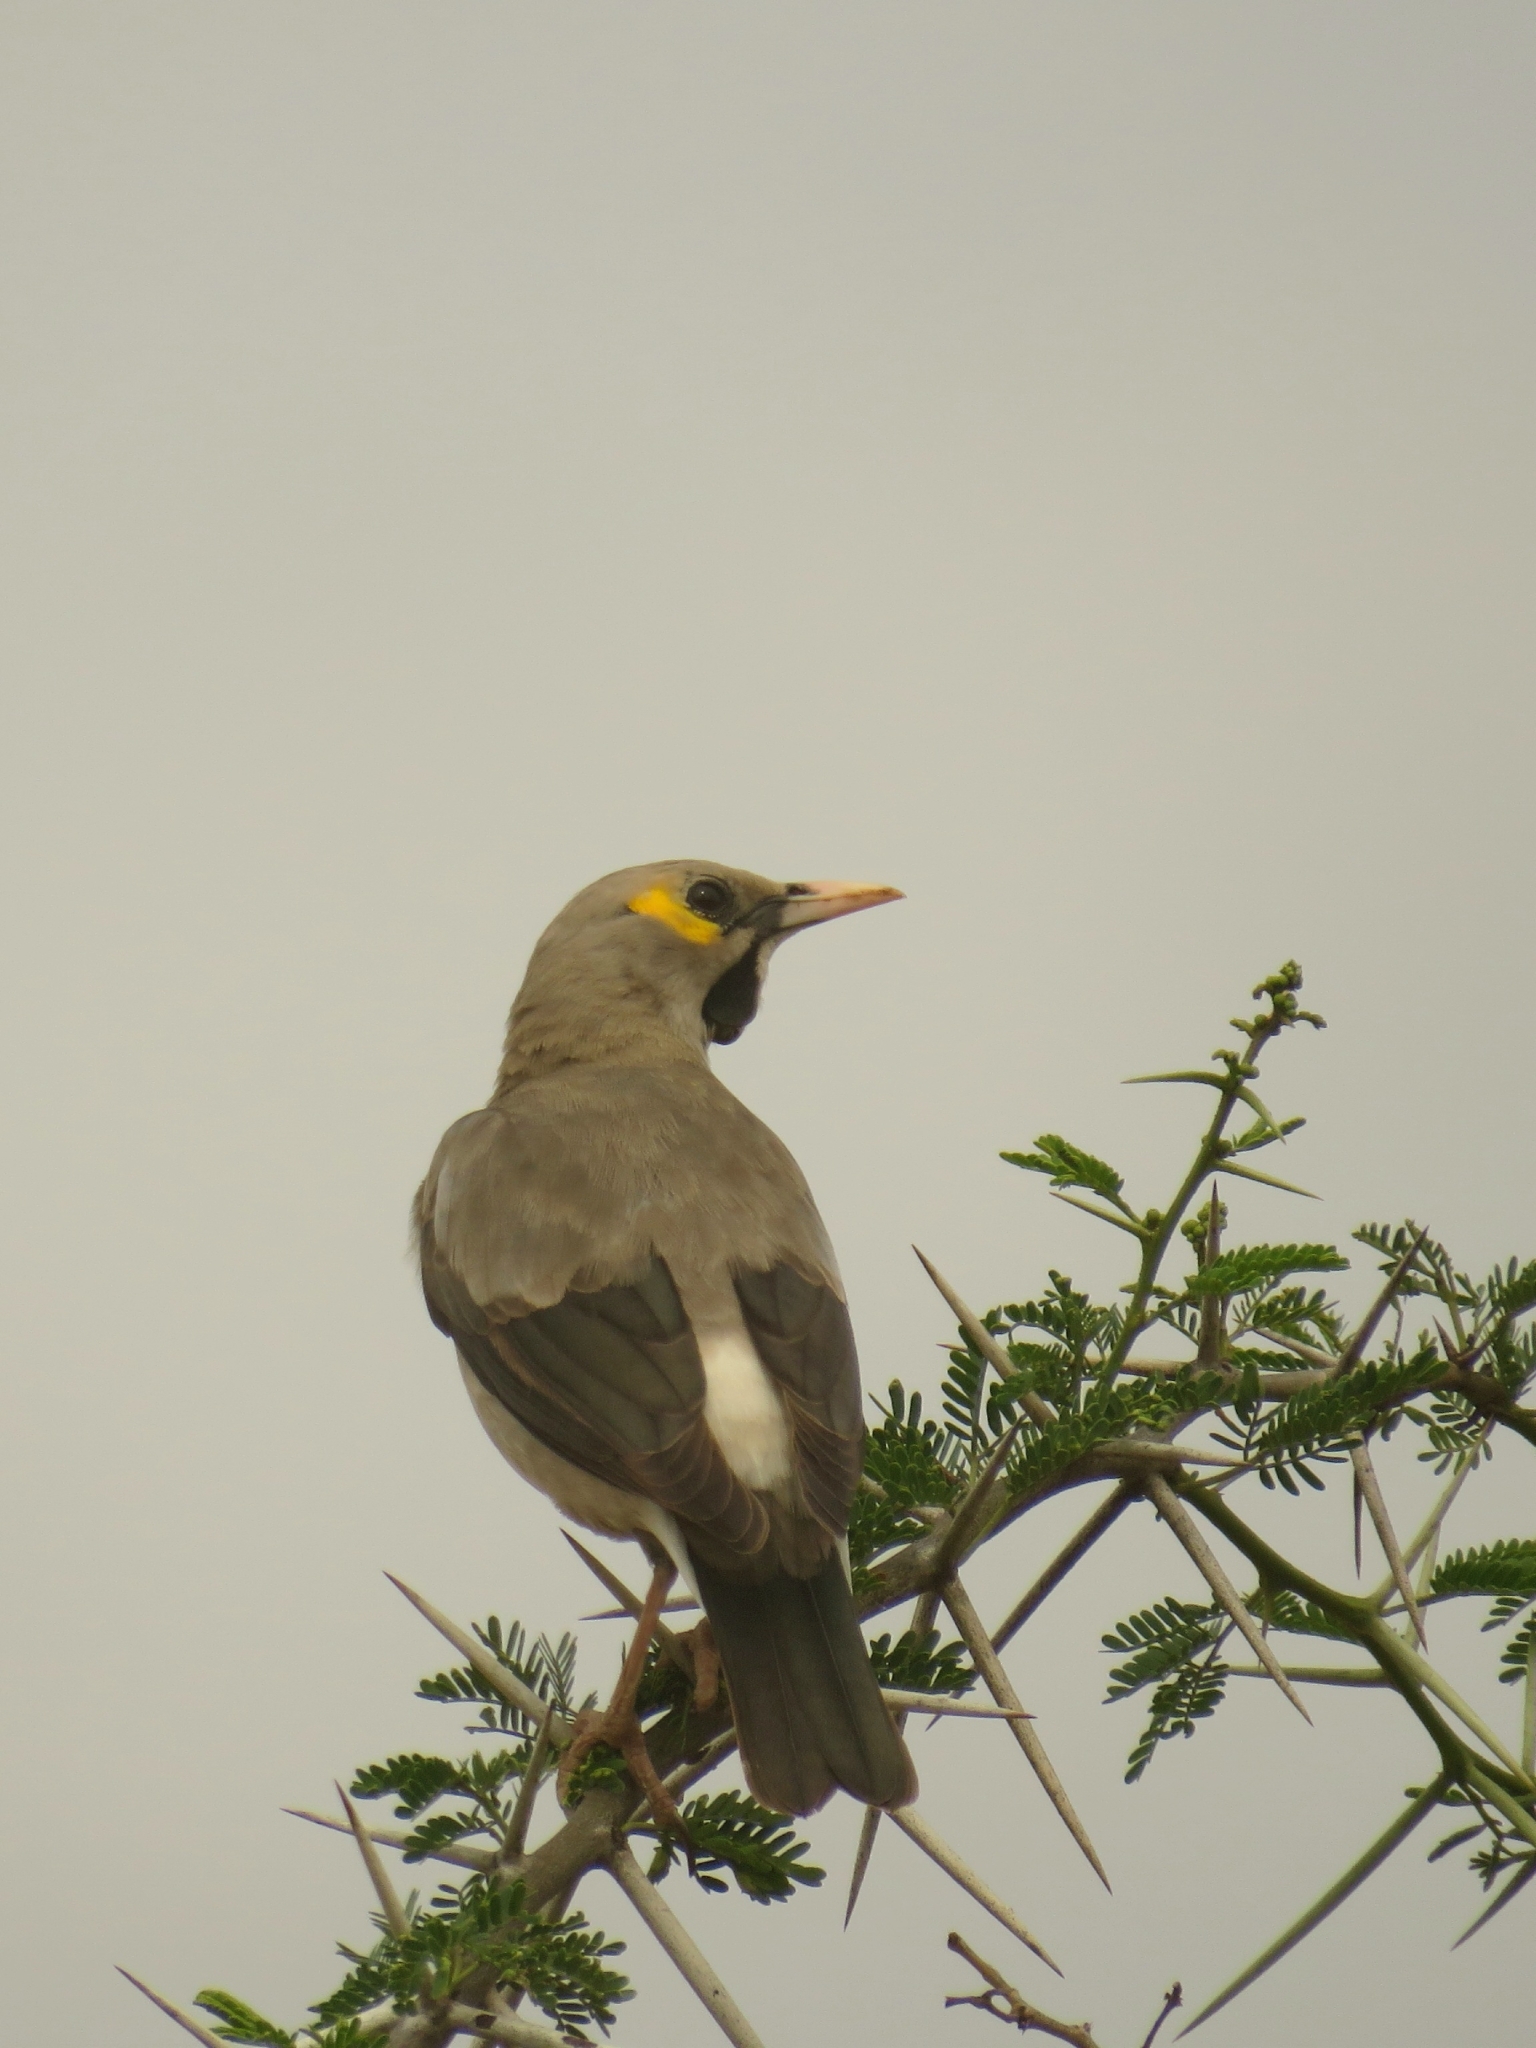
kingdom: Animalia
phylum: Chordata
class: Aves
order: Passeriformes
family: Sturnidae
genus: Creatophora
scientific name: Creatophora cinerea
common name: Wattled starling
